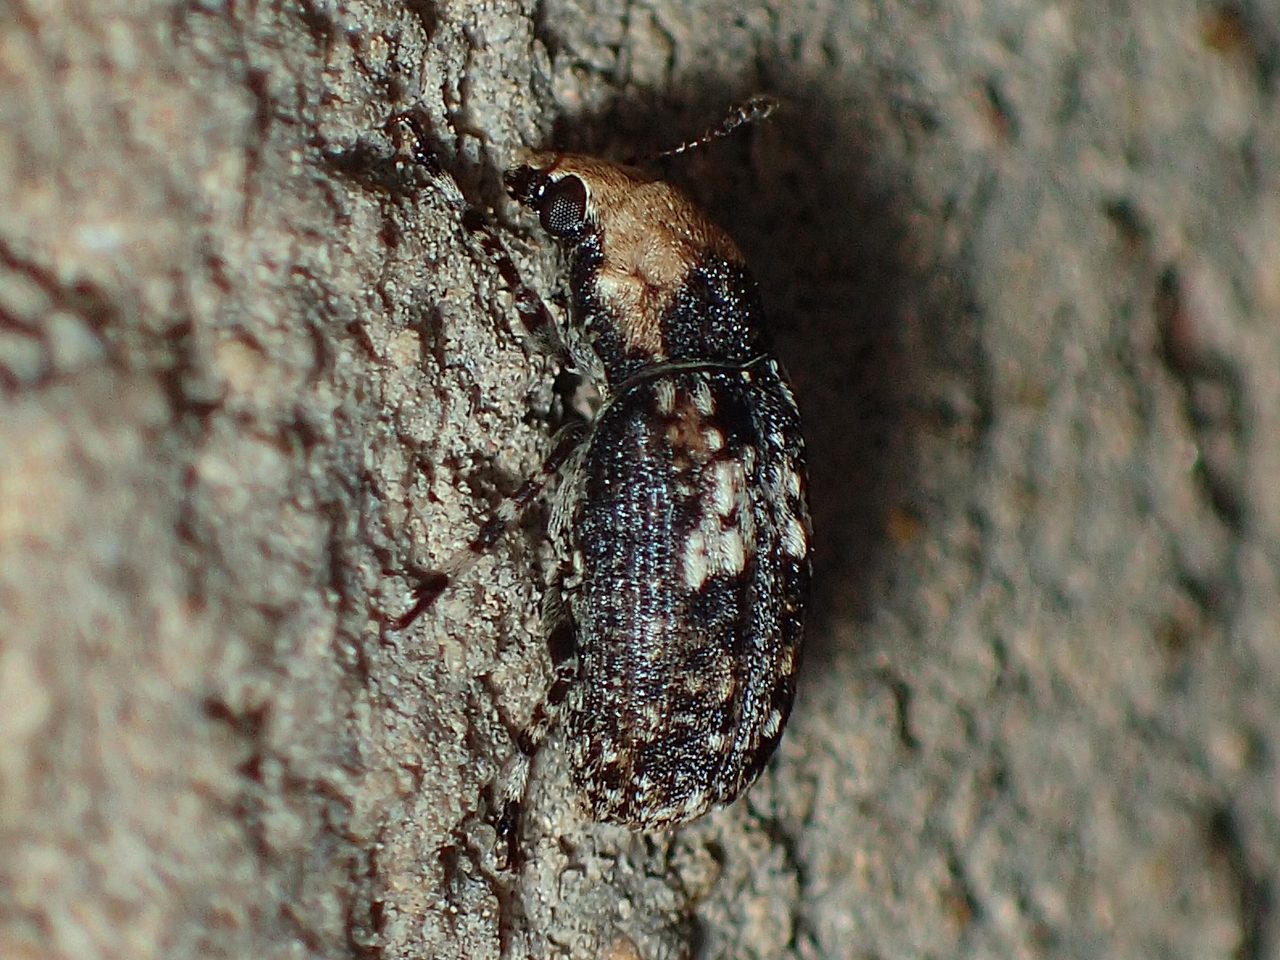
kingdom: Animalia
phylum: Arthropoda
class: Insecta
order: Coleoptera
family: Anthribidae
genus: Euparius
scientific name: Euparius paganus
